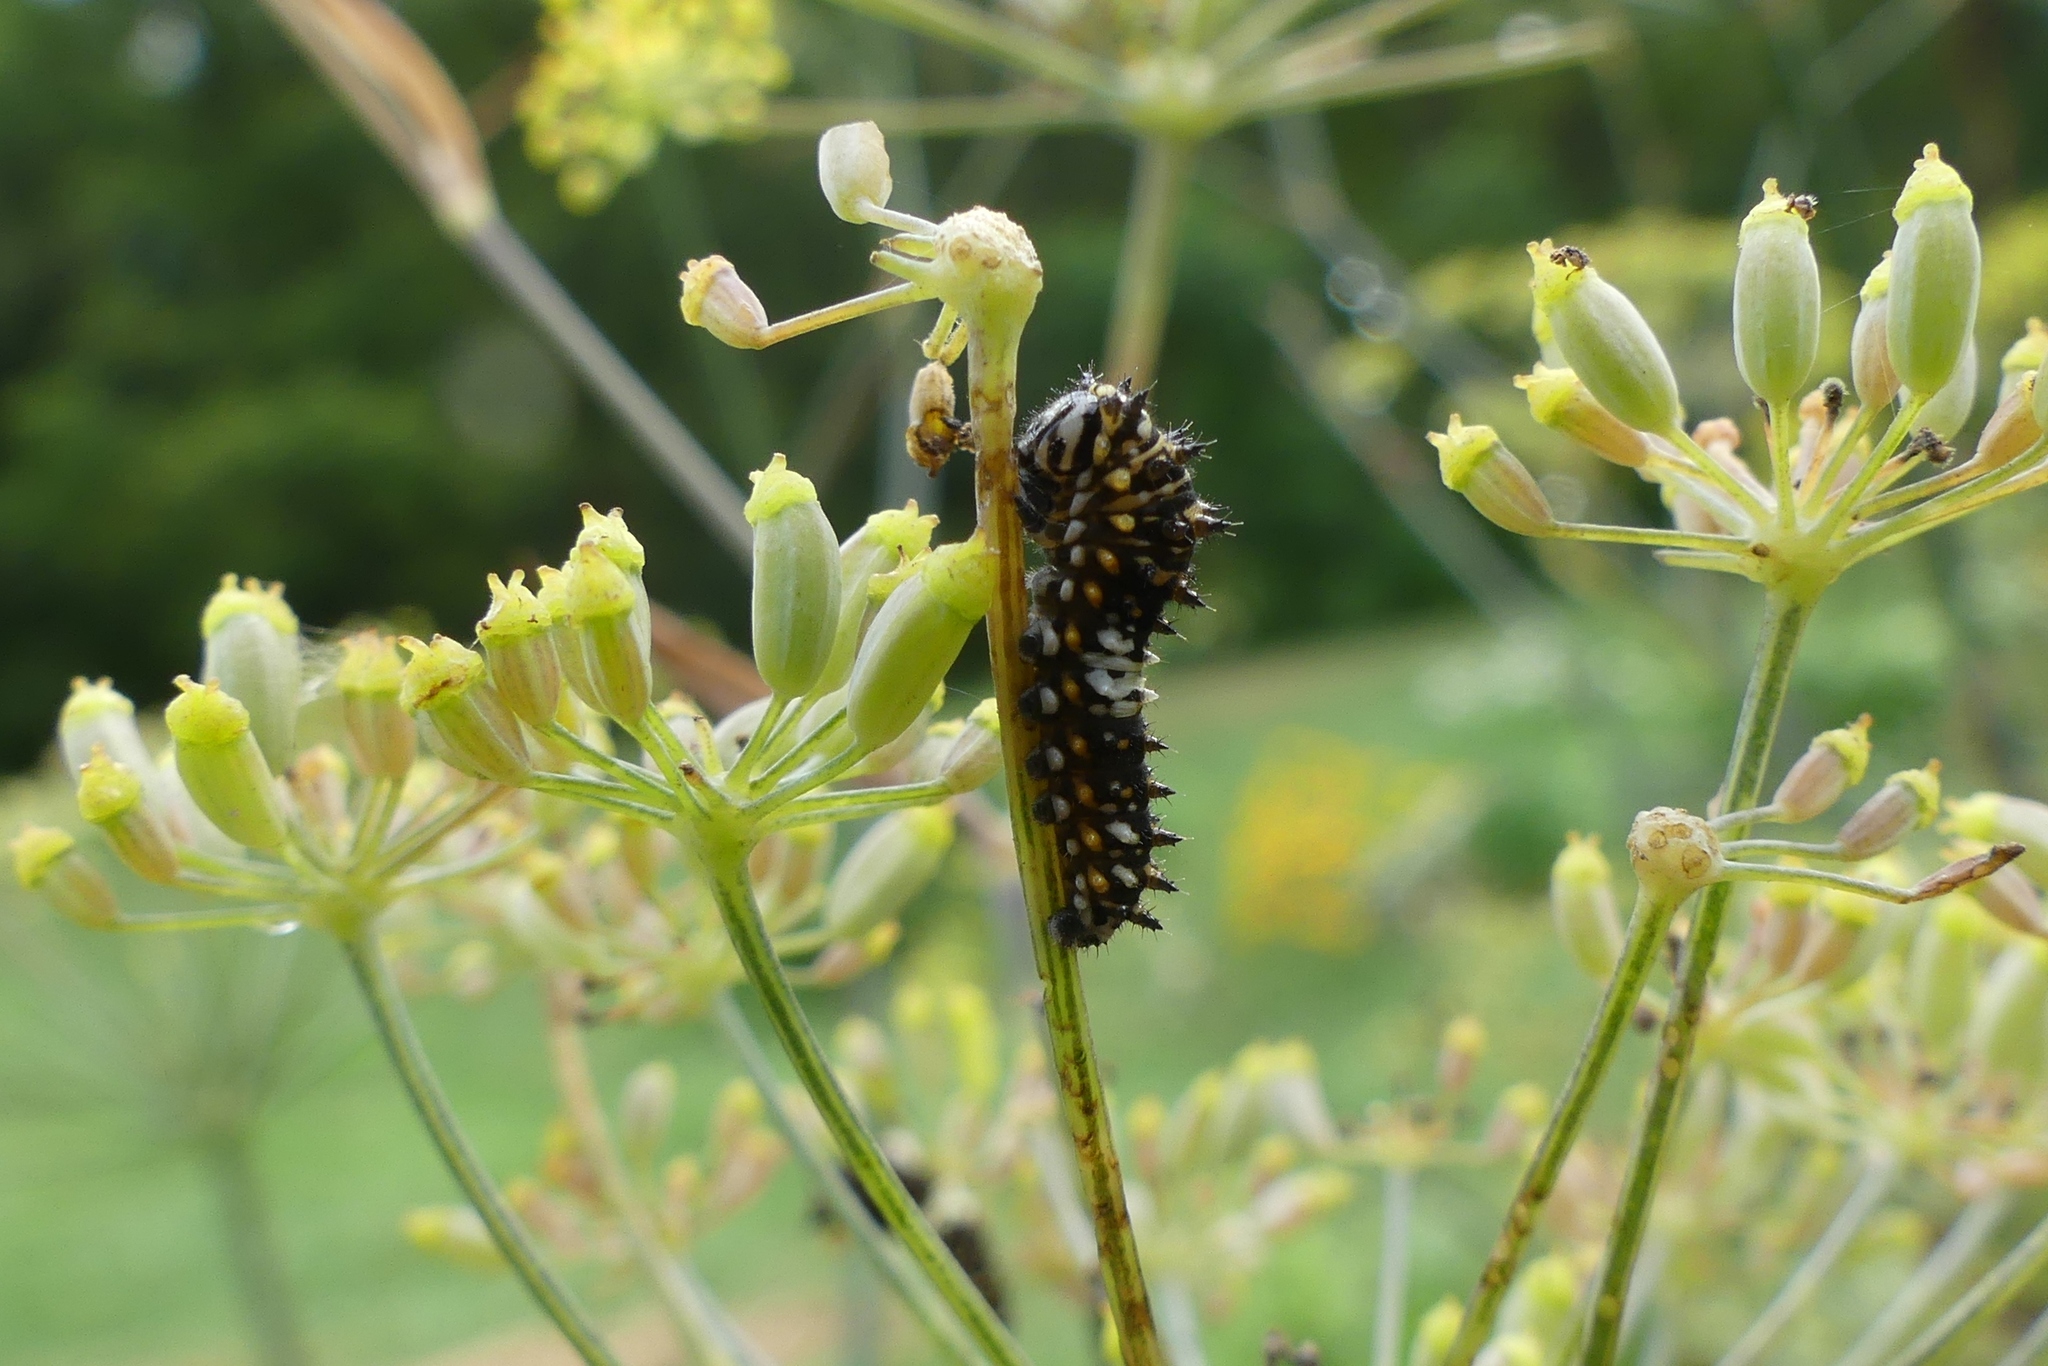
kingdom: Animalia
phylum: Arthropoda
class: Insecta
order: Lepidoptera
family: Papilionidae
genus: Papilio
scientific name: Papilio polyxenes
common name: Black swallowtail
